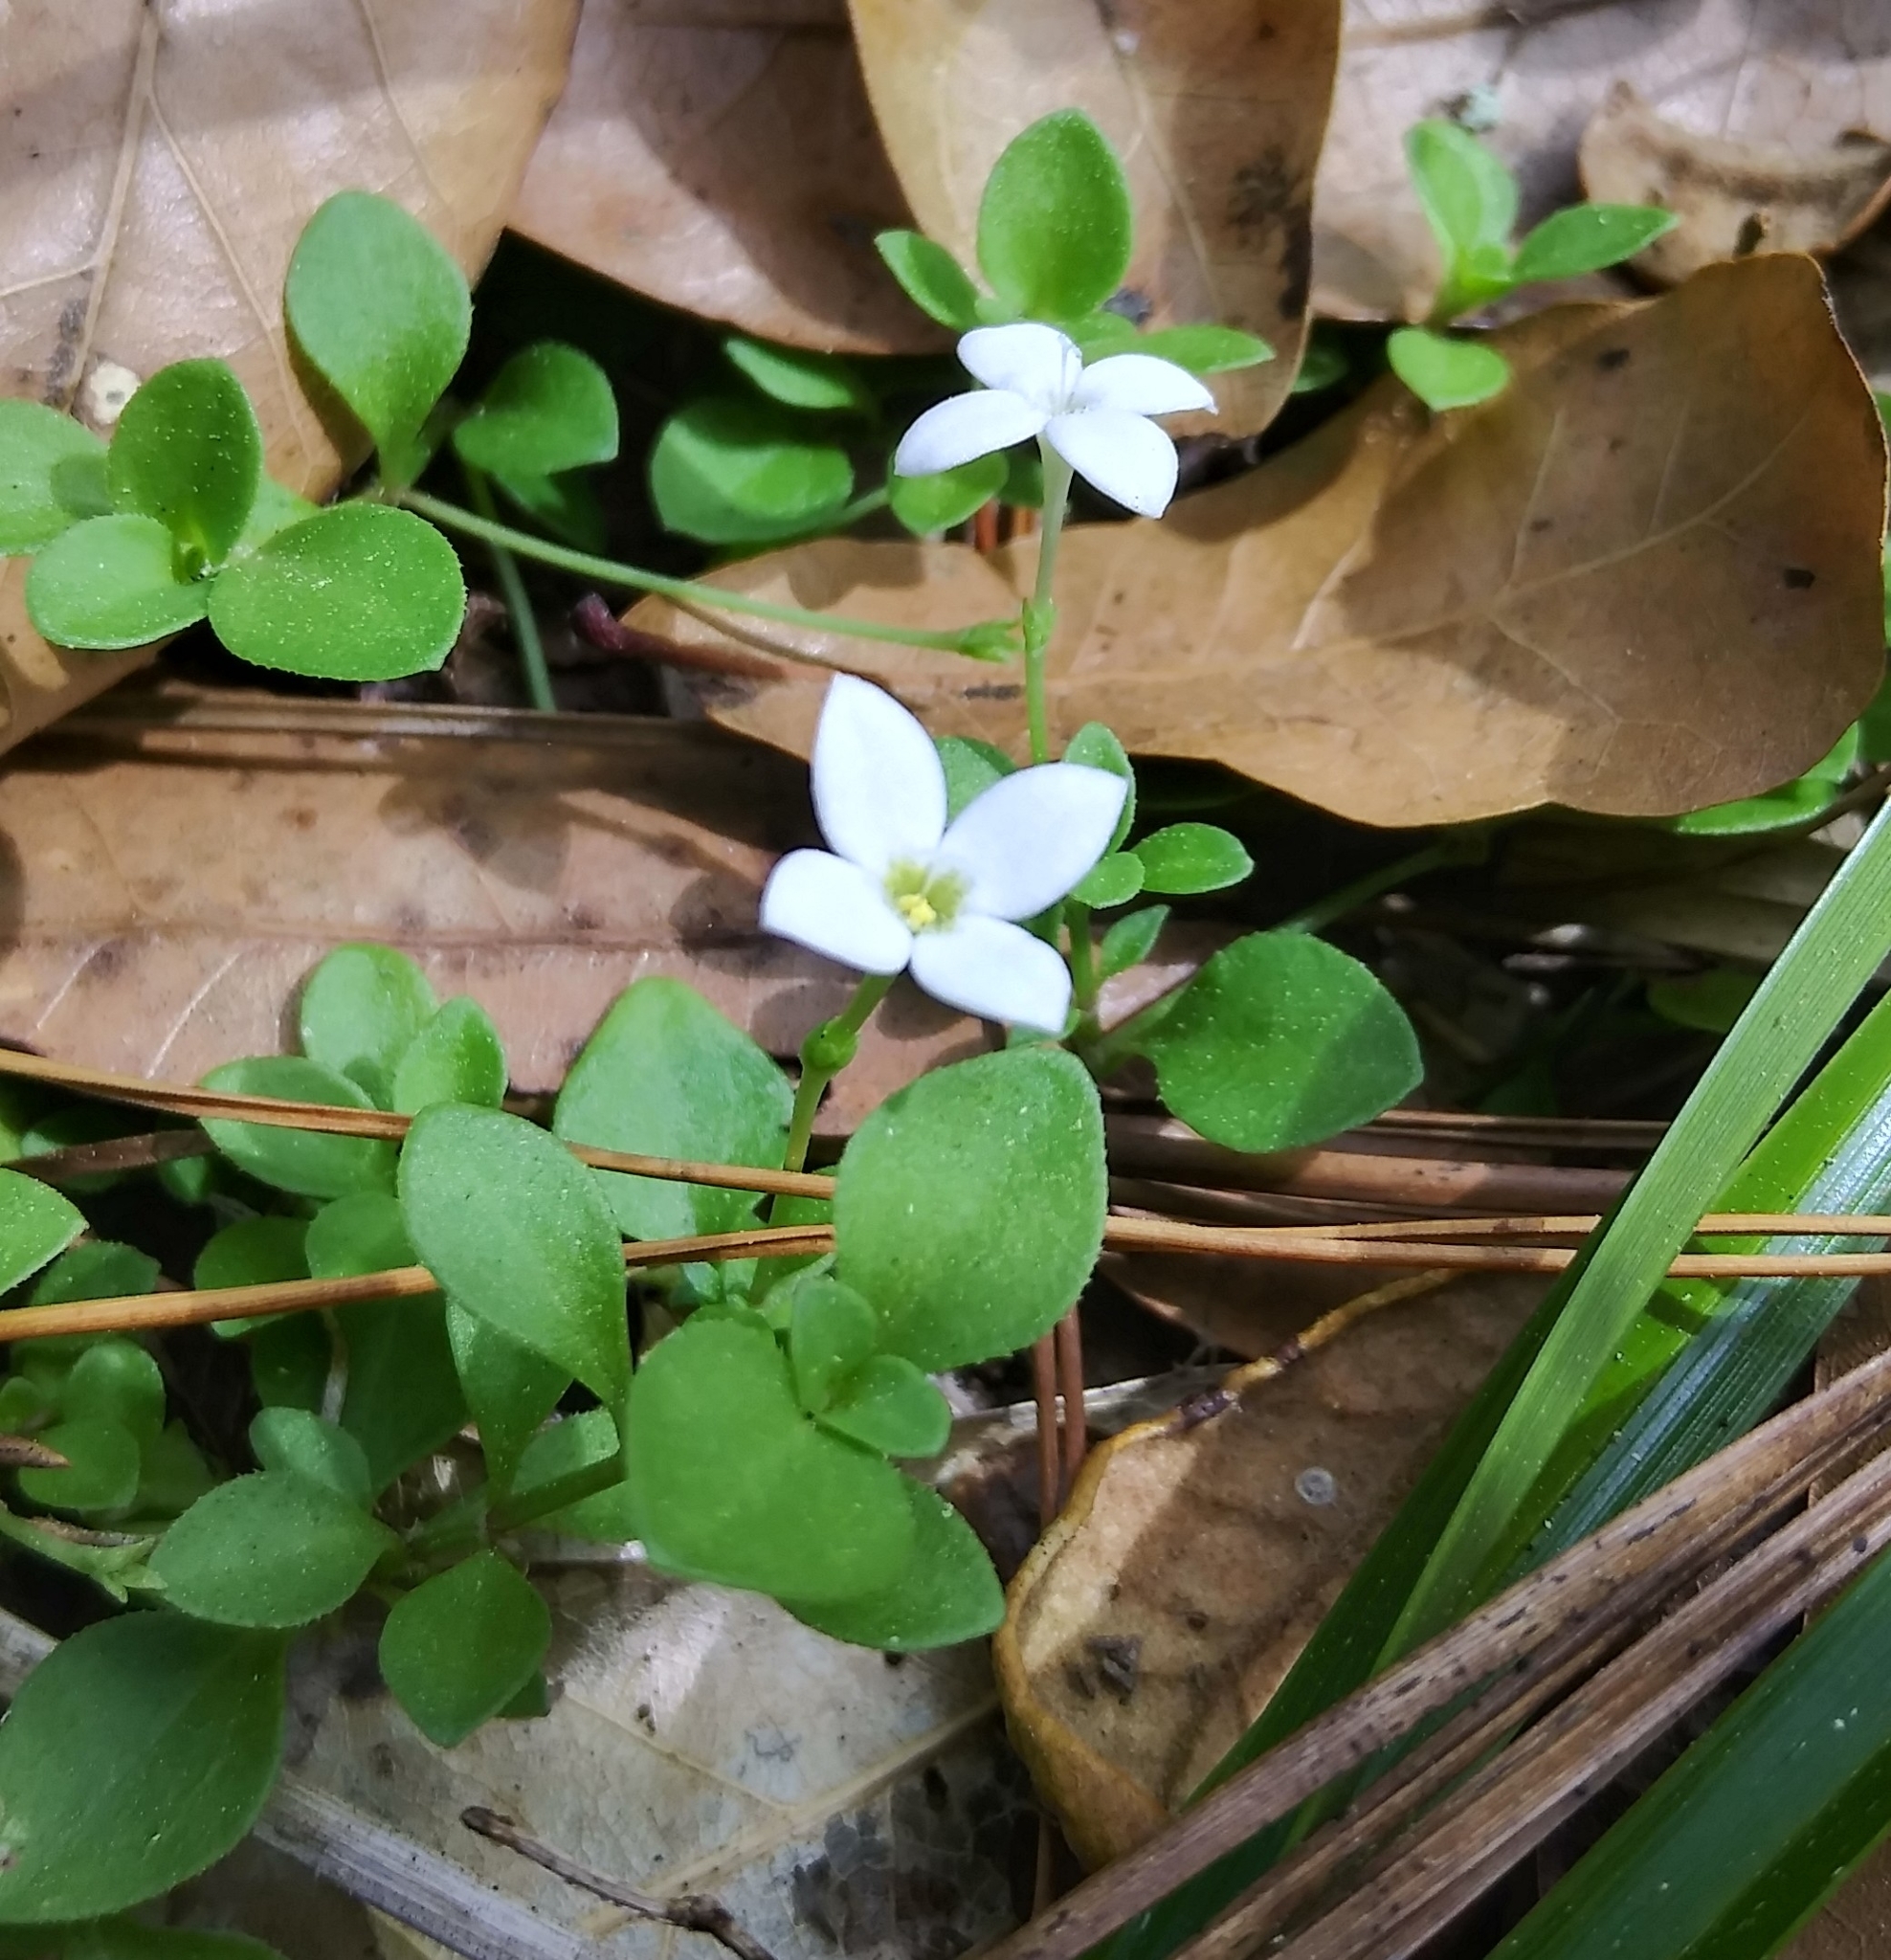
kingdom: Plantae
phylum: Tracheophyta
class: Magnoliopsida
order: Gentianales
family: Rubiaceae
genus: Houstonia
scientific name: Houstonia procumbens
